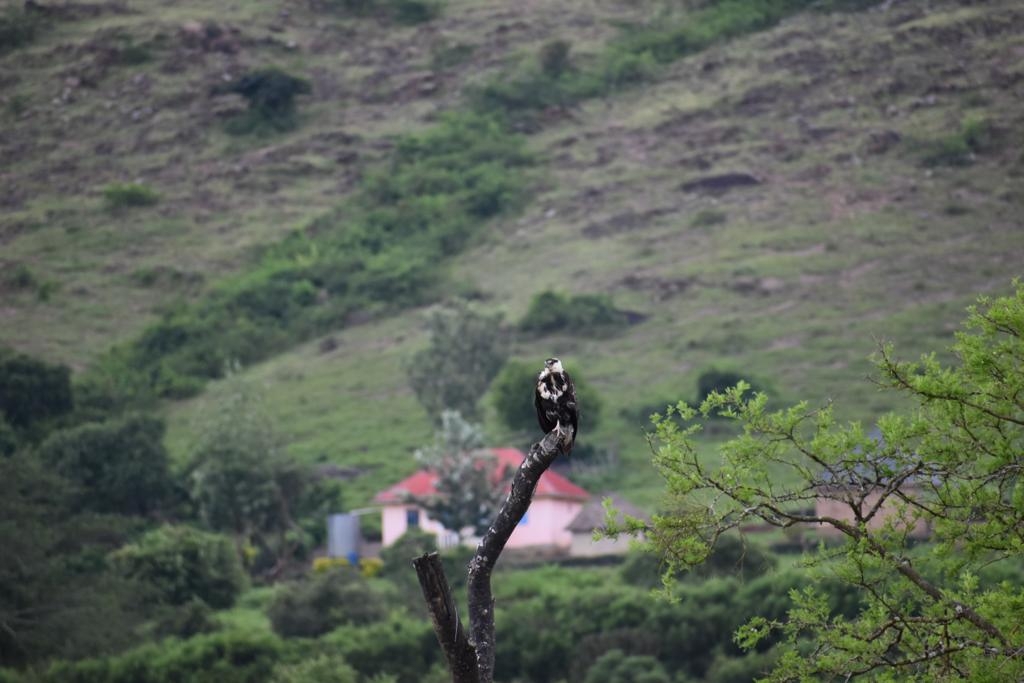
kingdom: Animalia
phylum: Chordata
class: Aves
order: Accipitriformes
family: Accipitridae
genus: Haliaeetus
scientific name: Haliaeetus vocifer
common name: African fish eagle
